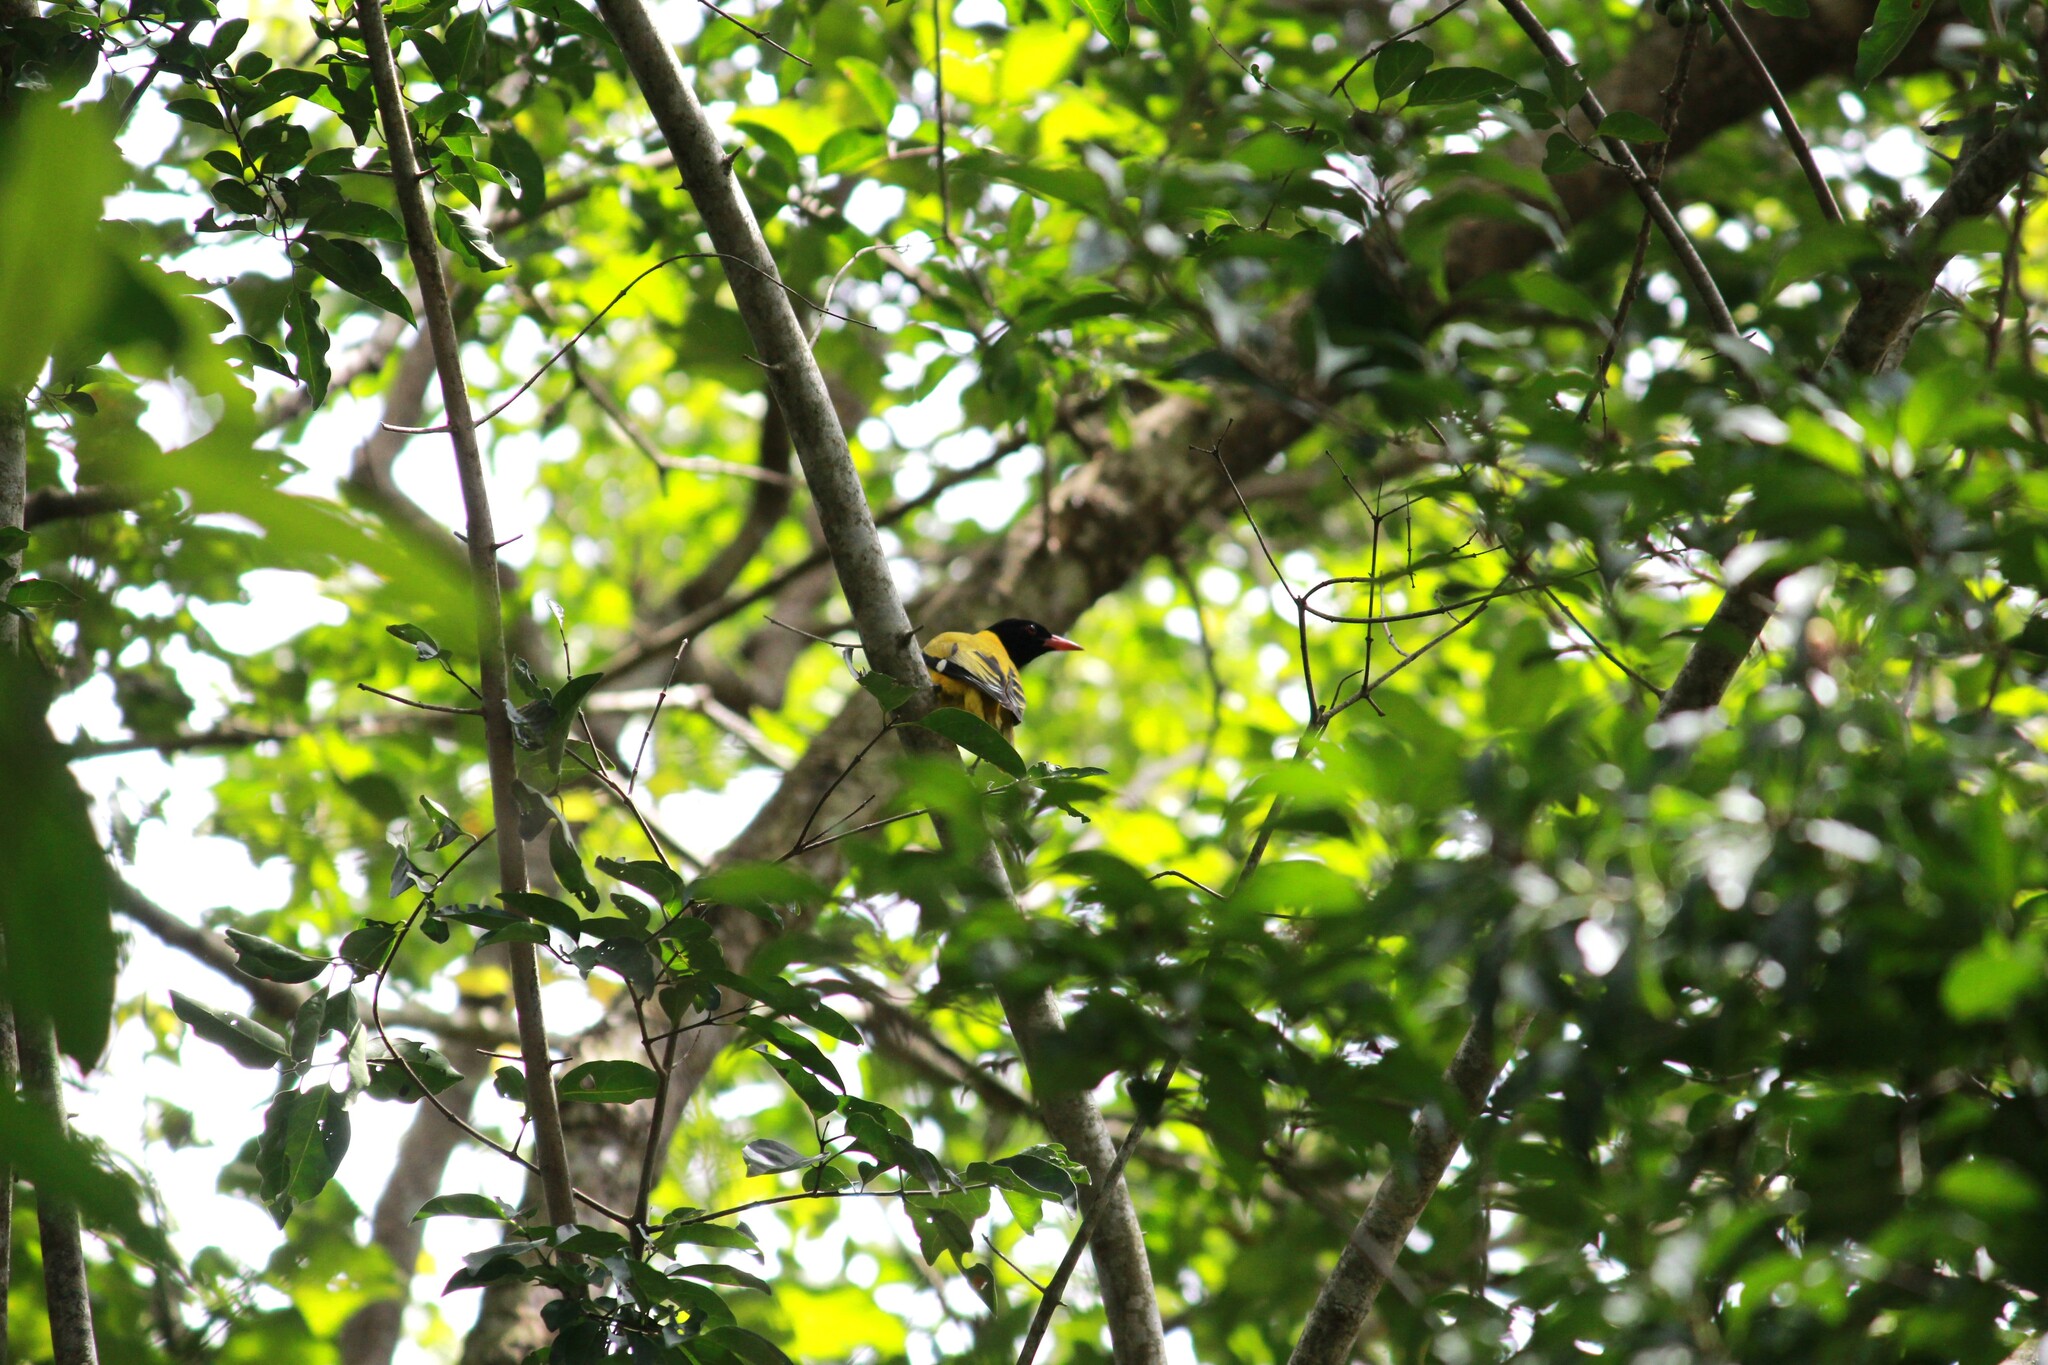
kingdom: Animalia
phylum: Chordata
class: Aves
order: Passeriformes
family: Oriolidae
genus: Oriolus
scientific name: Oriolus larvatus
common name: Black-headed oriole
